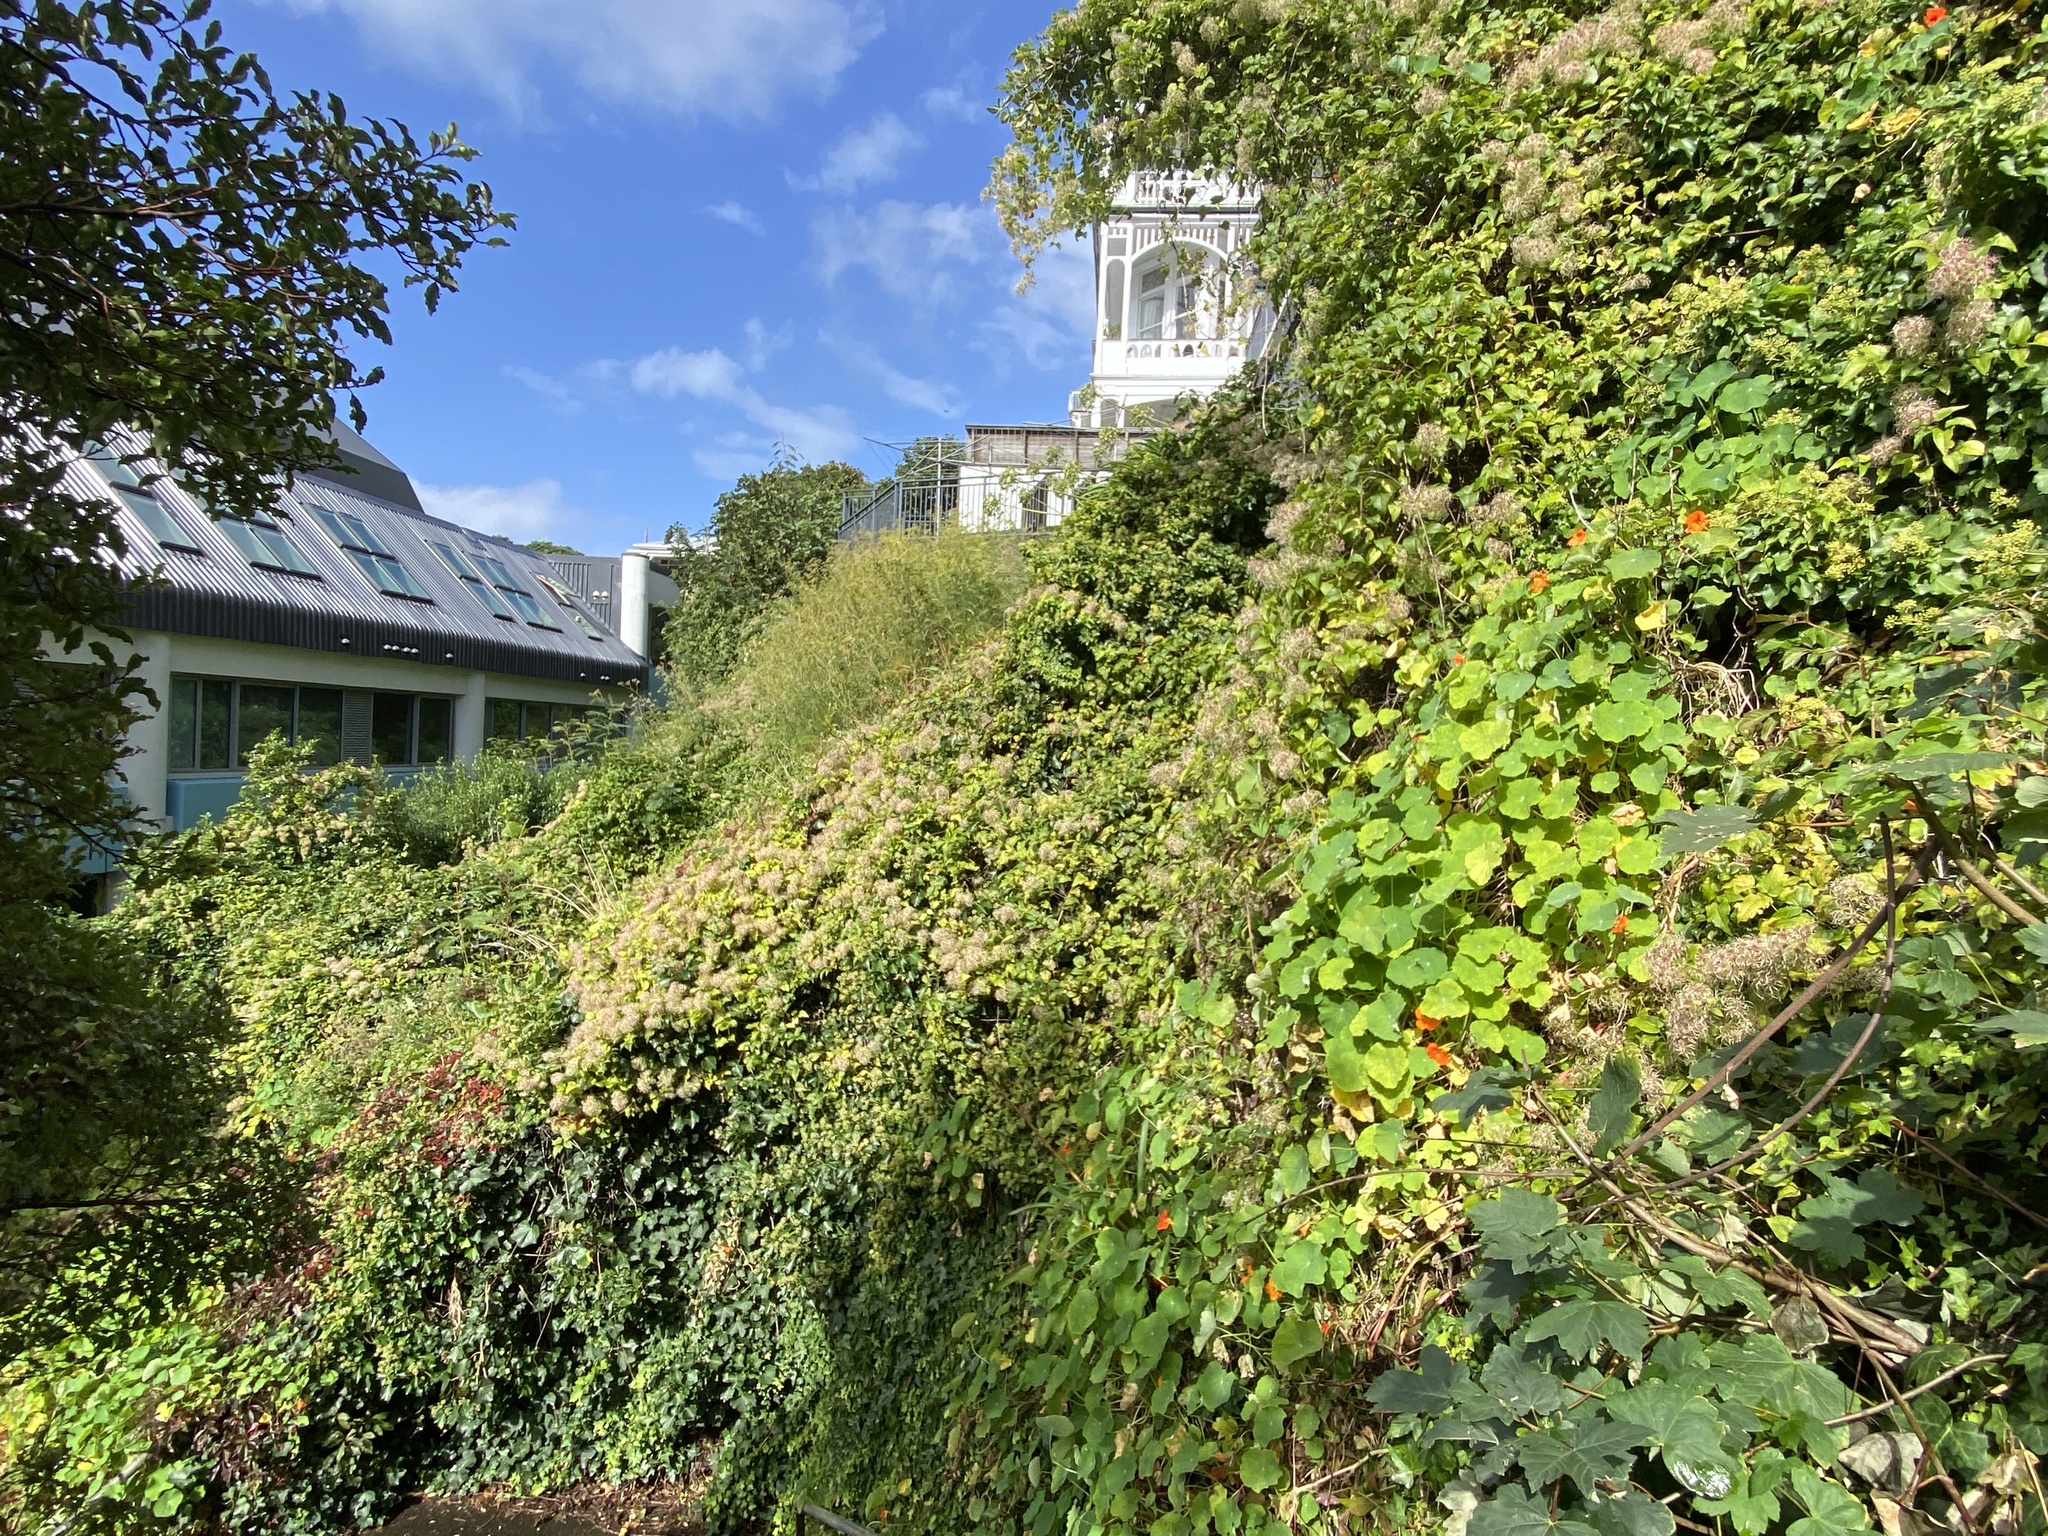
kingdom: Plantae
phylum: Tracheophyta
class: Magnoliopsida
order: Ranunculales
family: Ranunculaceae
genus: Clematis
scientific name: Clematis vitalba
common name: Evergreen clematis
